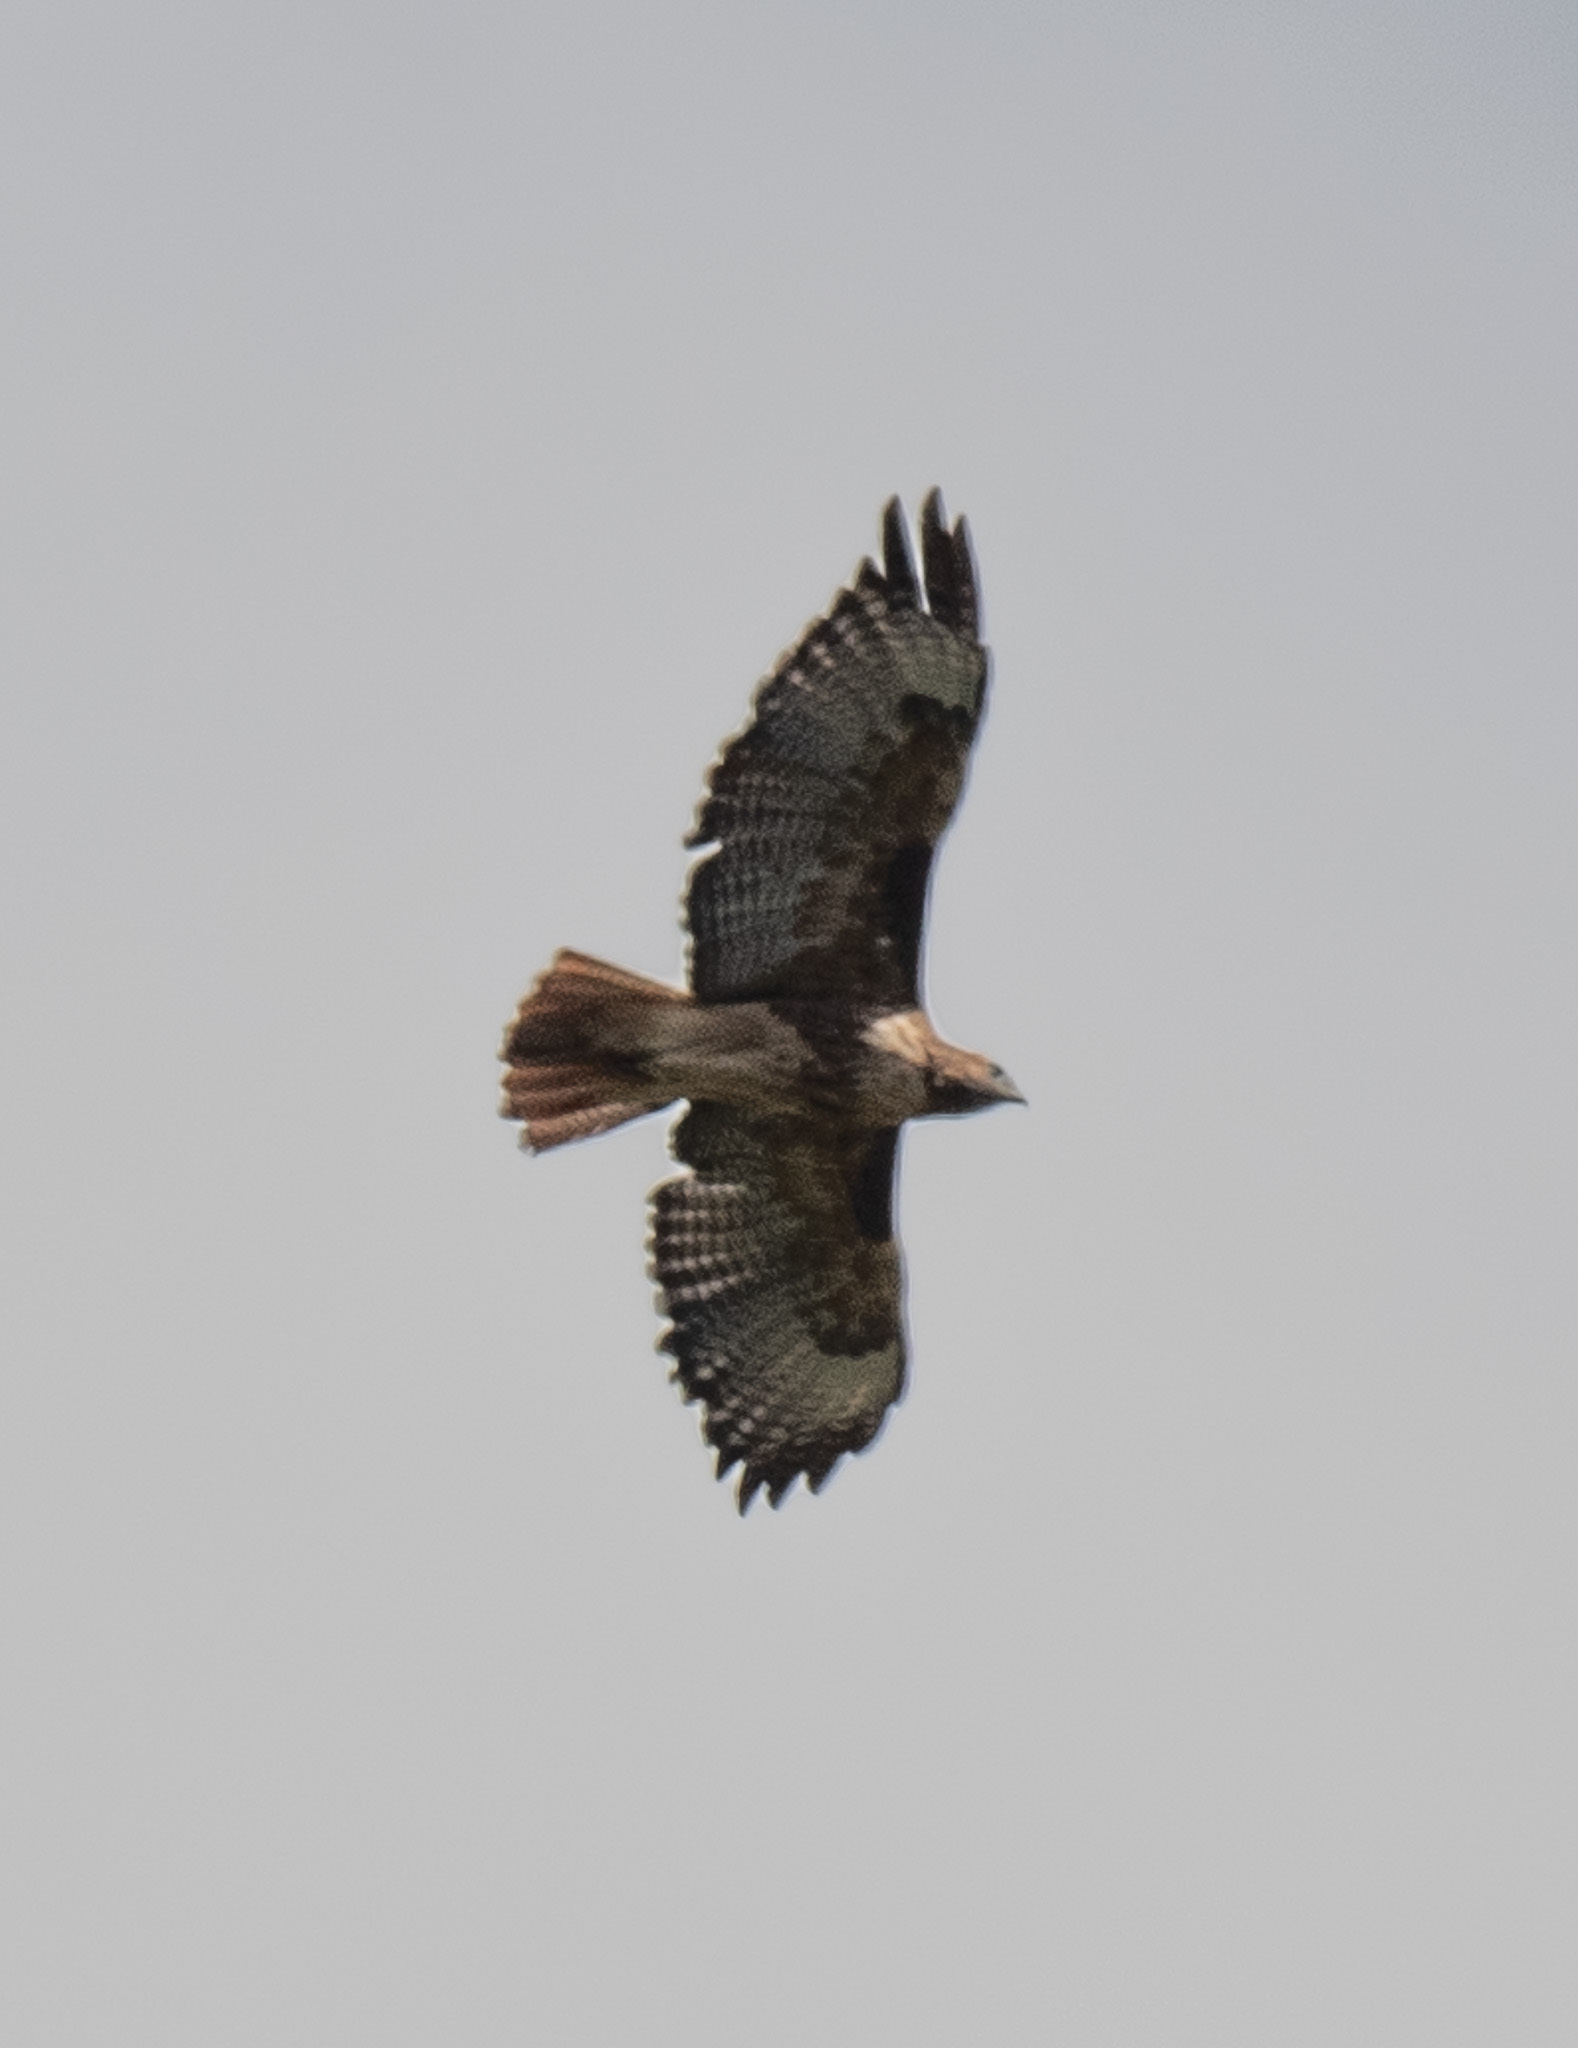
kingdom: Animalia
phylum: Chordata
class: Aves
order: Accipitriformes
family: Accipitridae
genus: Buteo
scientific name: Buteo jamaicensis
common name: Red-tailed hawk
